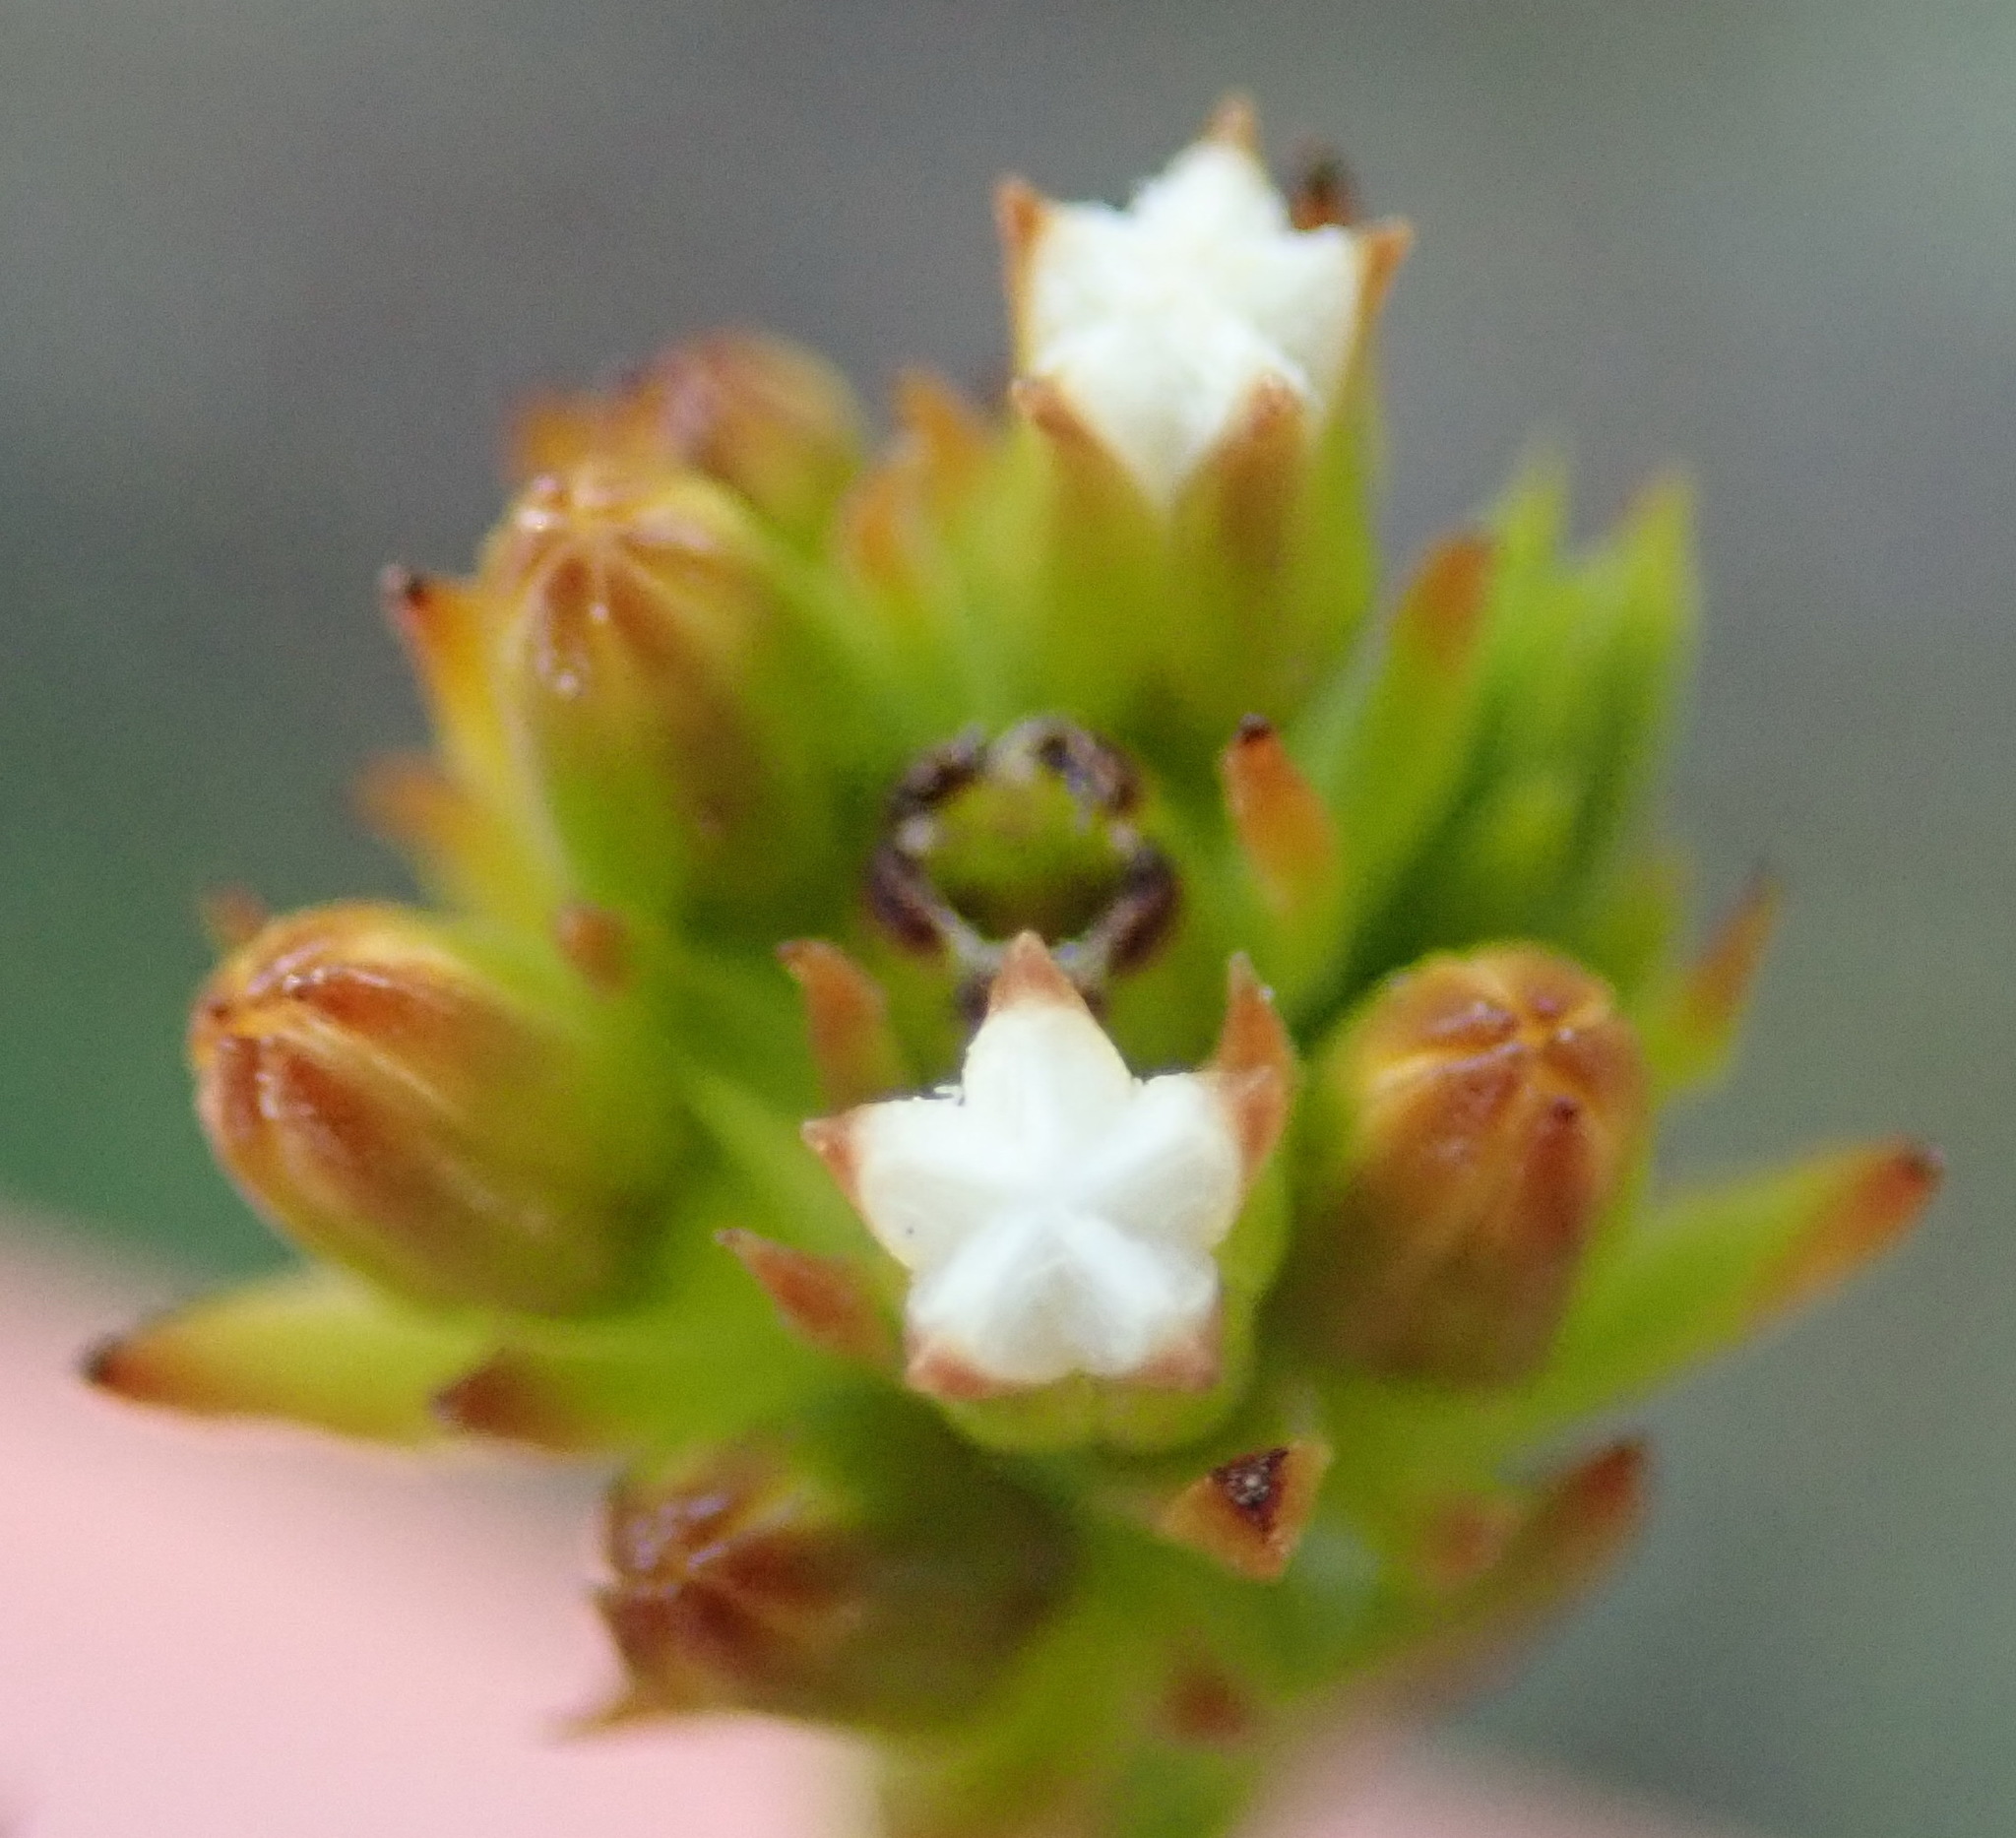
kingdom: Plantae
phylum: Tracheophyta
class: Magnoliopsida
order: Santalales
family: Thesiaceae
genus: Thesium
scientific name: Thesium capitatum
